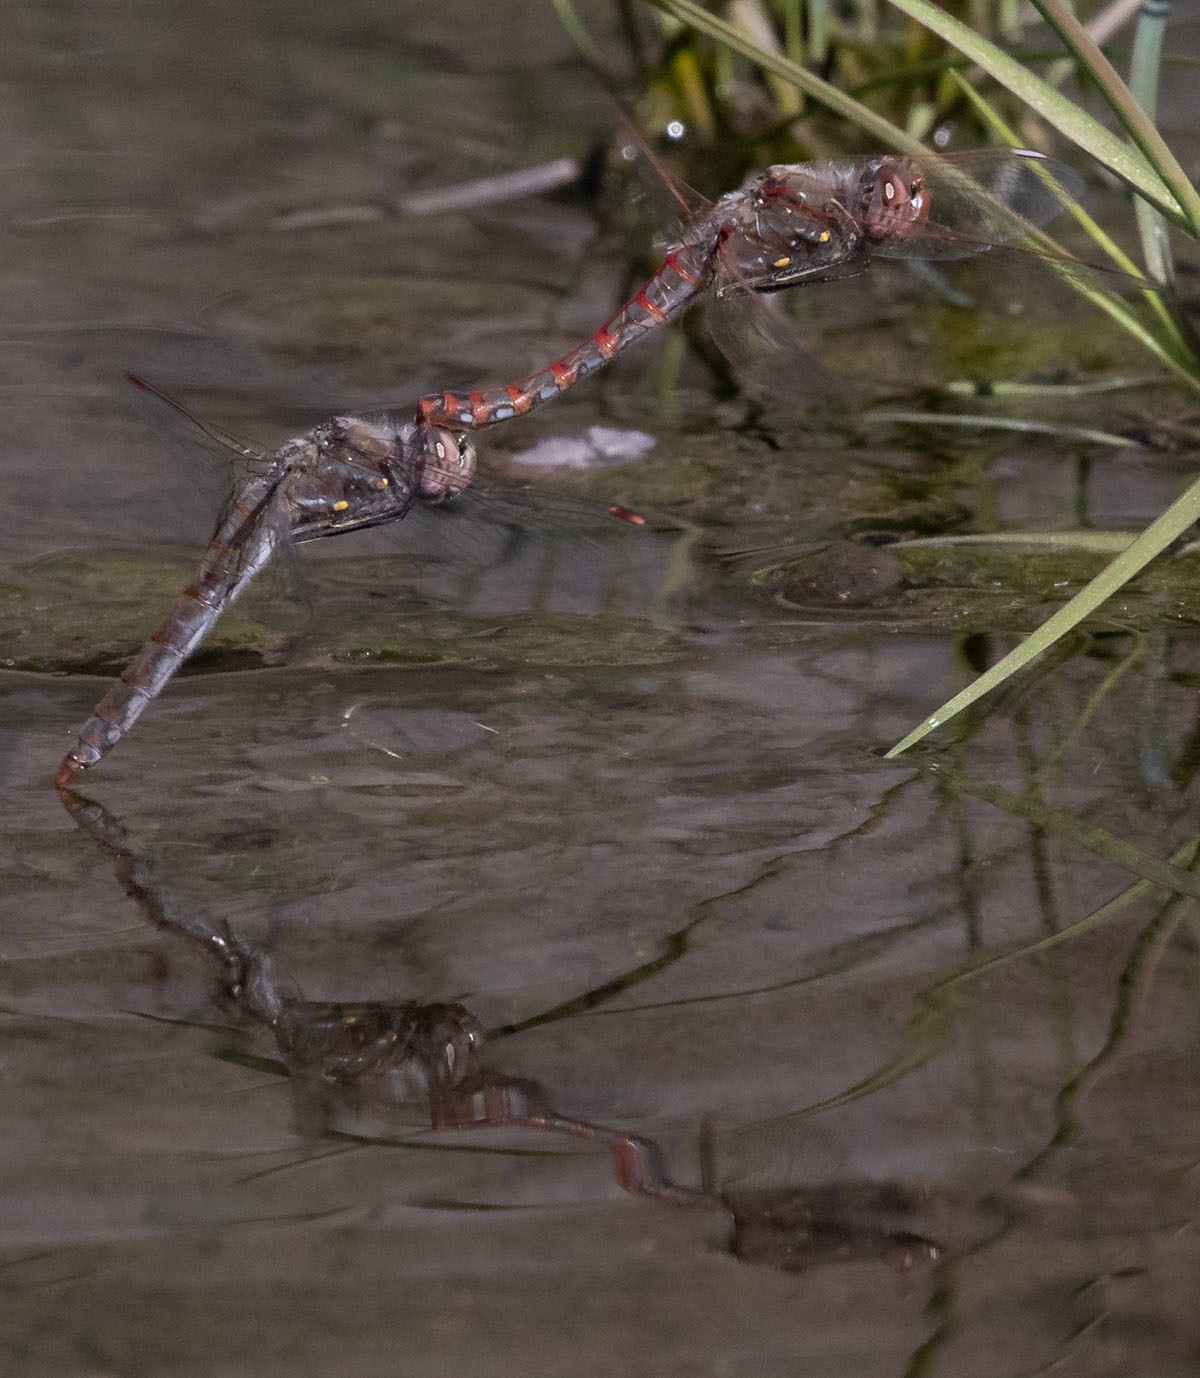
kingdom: Animalia
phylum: Arthropoda
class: Insecta
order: Odonata
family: Libellulidae
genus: Sympetrum
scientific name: Sympetrum corruptum
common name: Variegated meadowhawk
